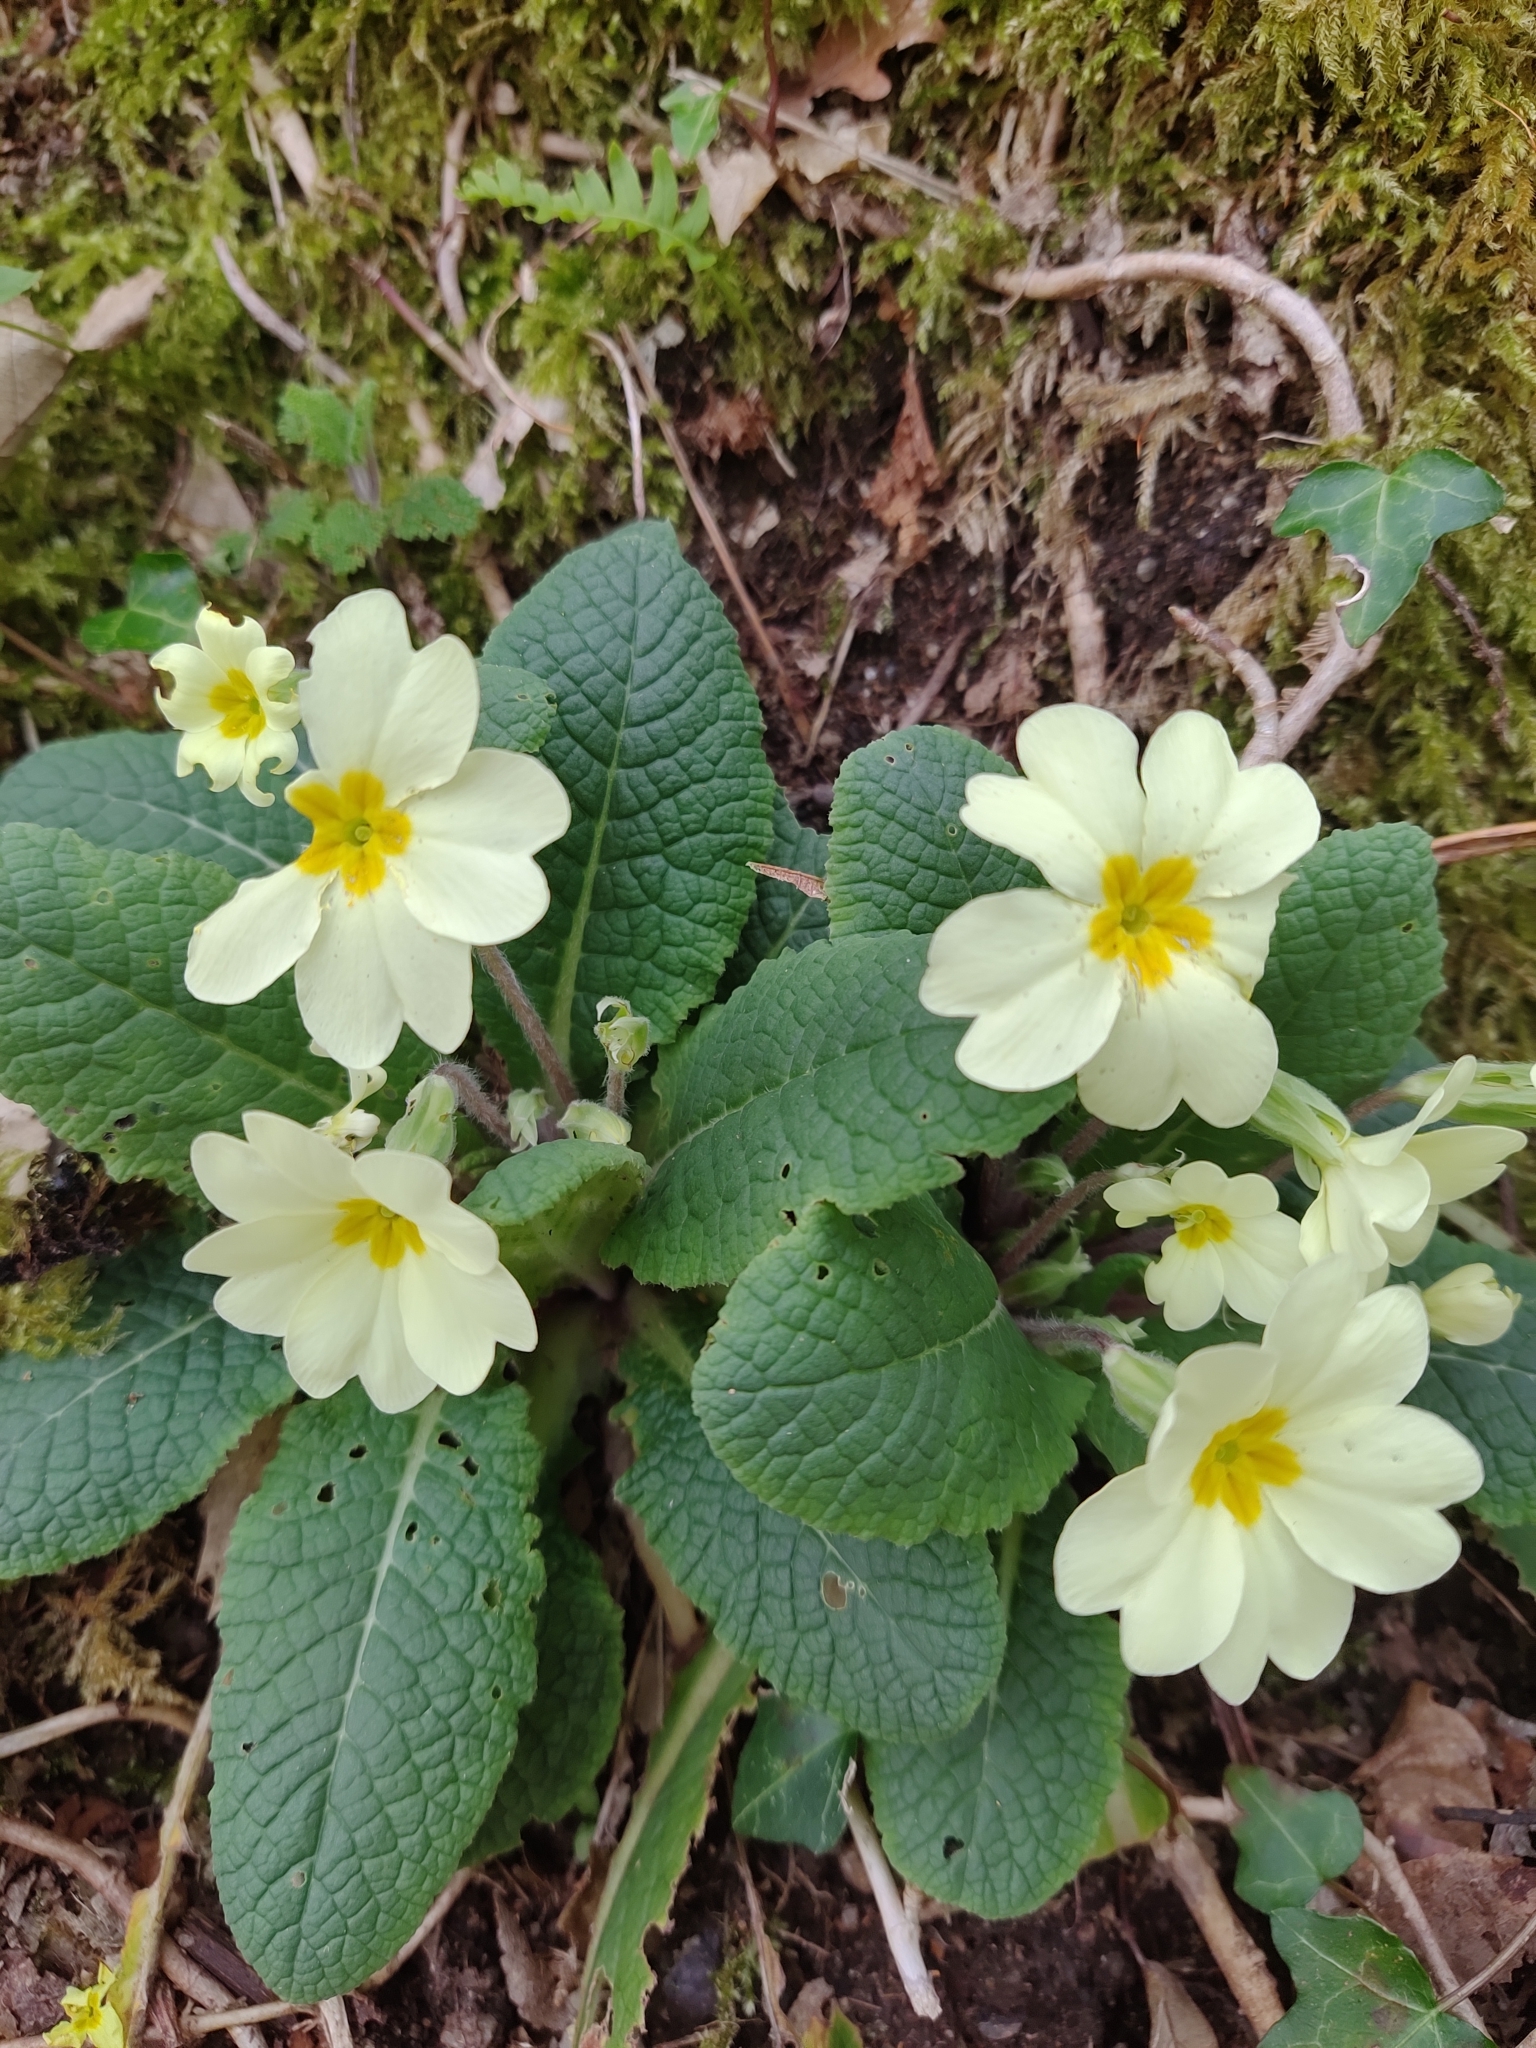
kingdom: Plantae
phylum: Tracheophyta
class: Magnoliopsida
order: Ericales
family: Primulaceae
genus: Primula
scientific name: Primula vulgaris
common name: Primrose
